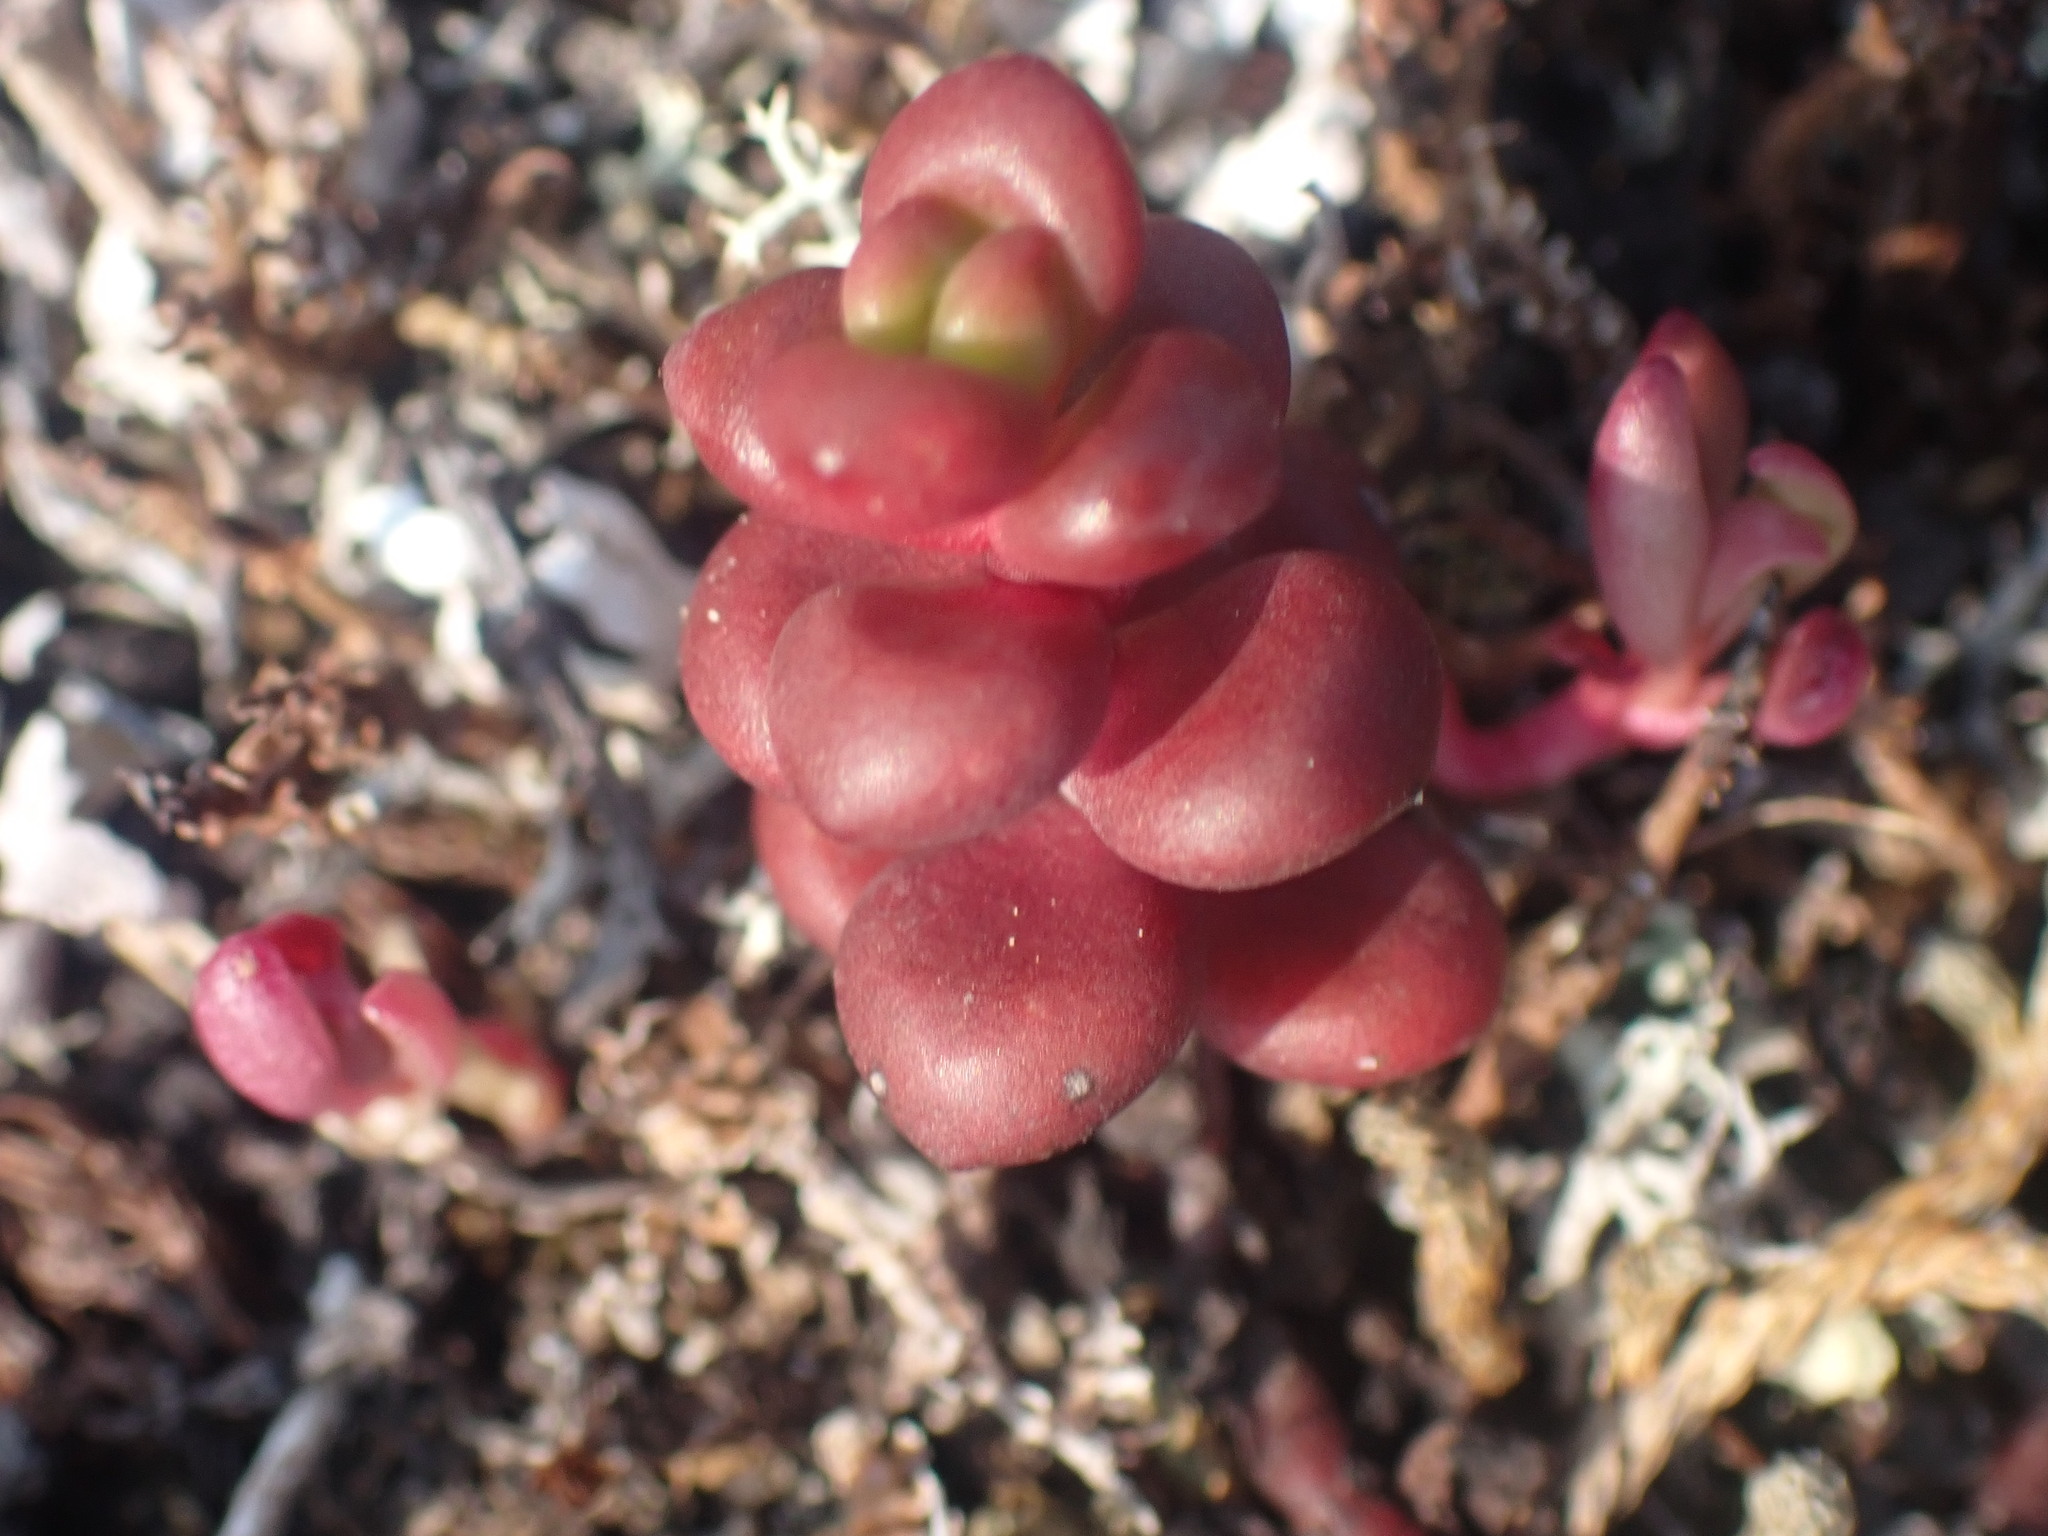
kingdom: Plantae
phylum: Tracheophyta
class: Magnoliopsida
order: Saxifragales
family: Crassulaceae
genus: Sedum
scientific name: Sedum divergens
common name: Cascade stonecrop
